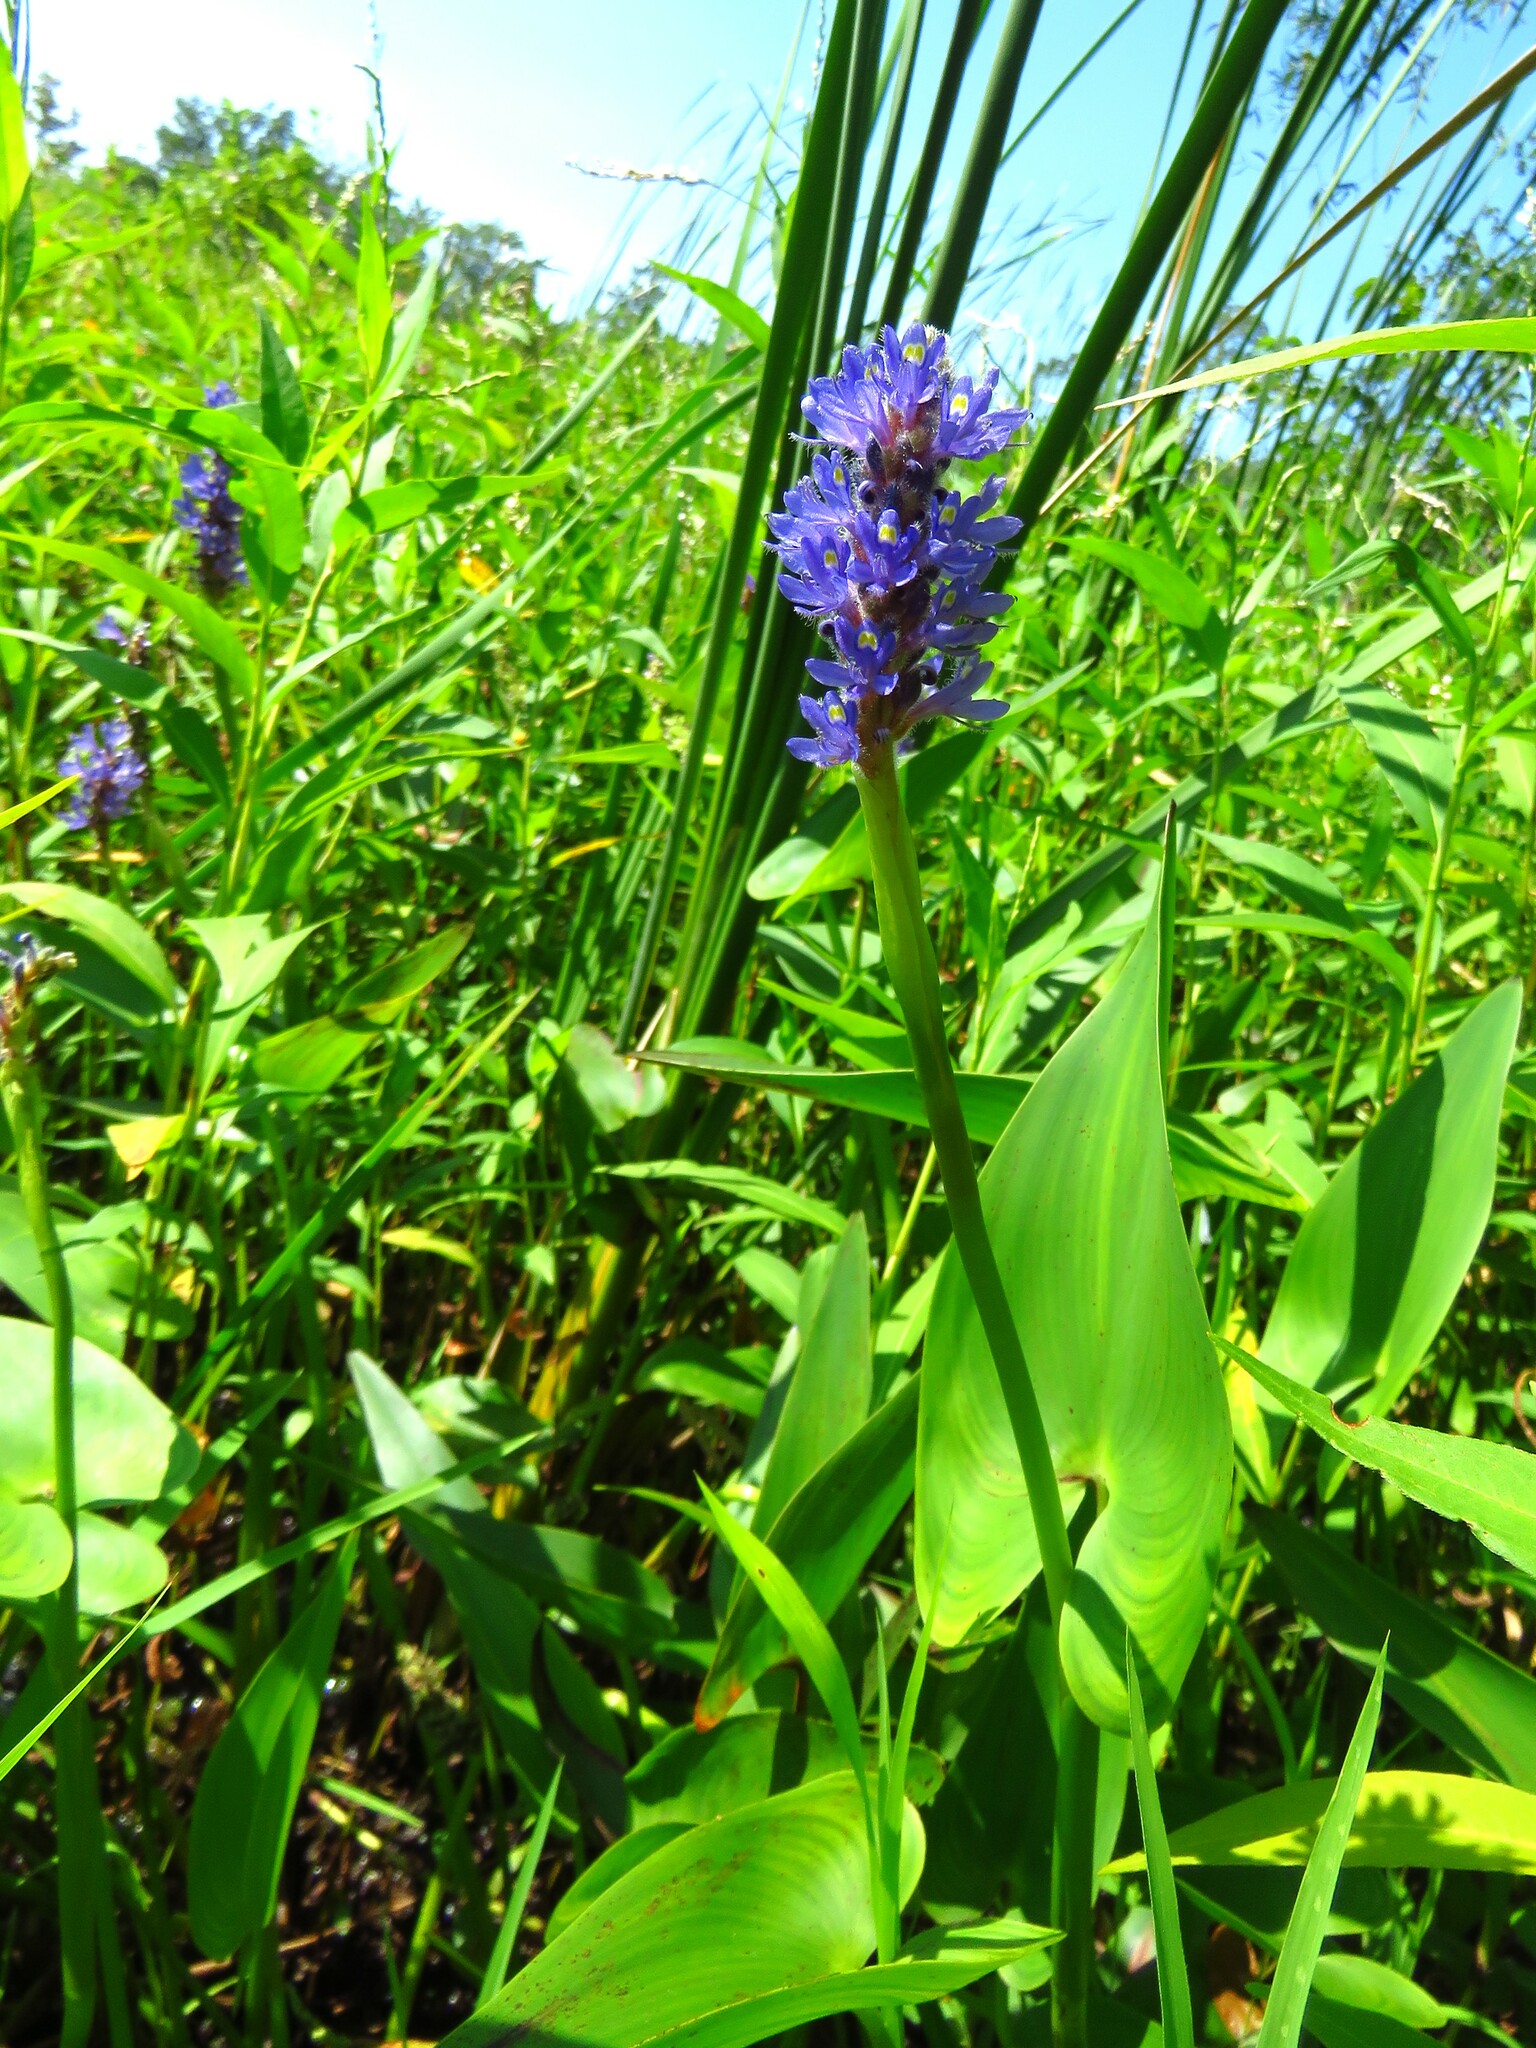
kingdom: Plantae
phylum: Tracheophyta
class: Liliopsida
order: Commelinales
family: Pontederiaceae
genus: Pontederia
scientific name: Pontederia cordata
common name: Pickerelweed
